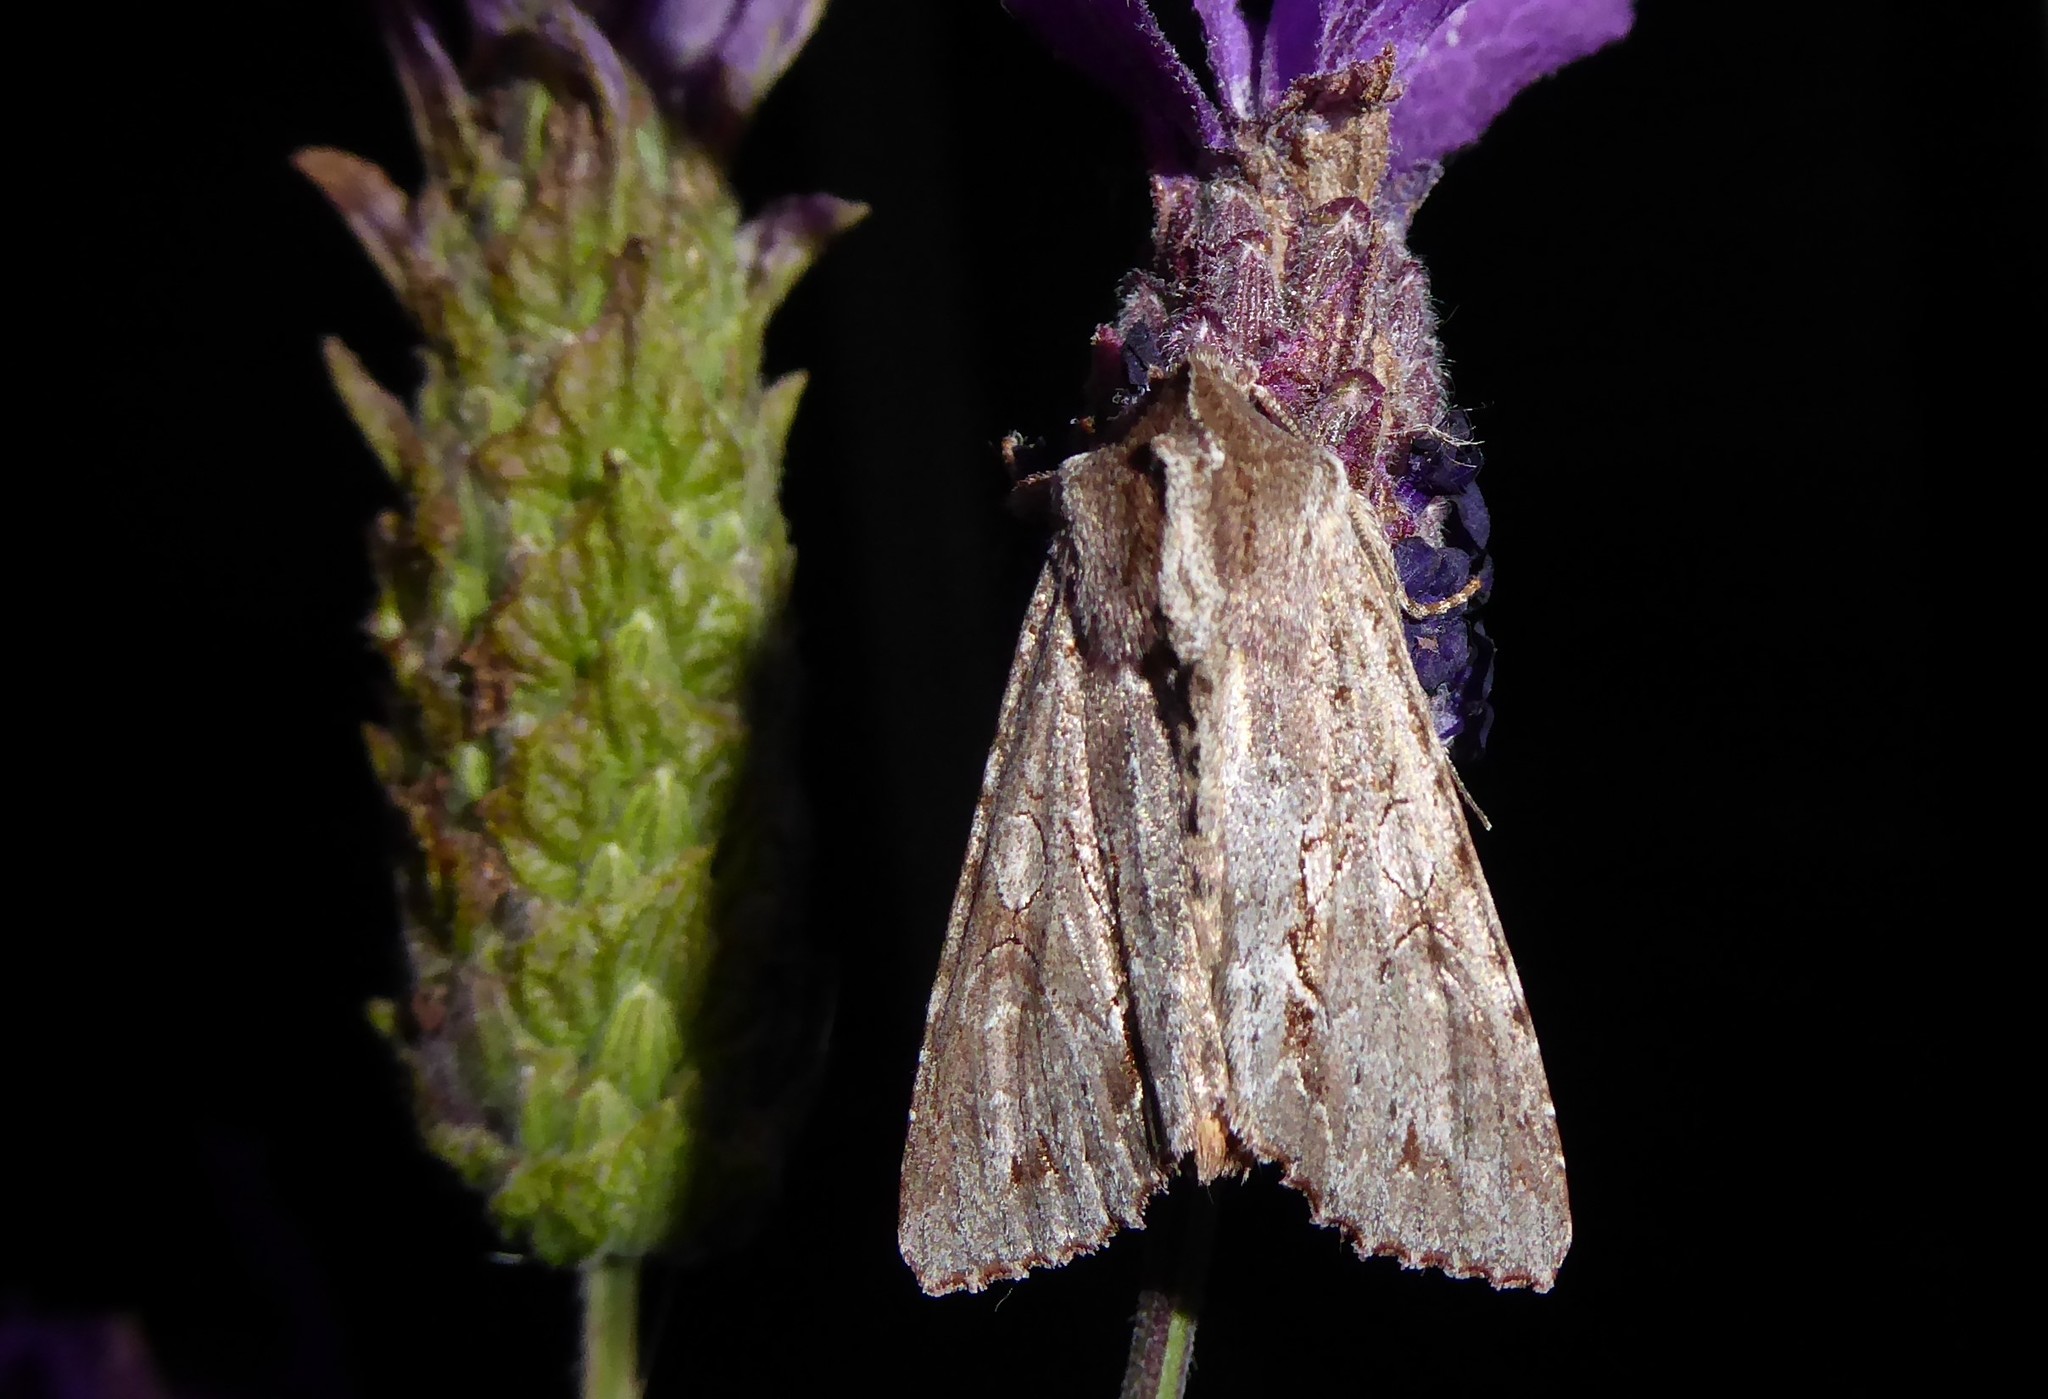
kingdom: Animalia
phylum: Arthropoda
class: Insecta
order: Lepidoptera
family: Noctuidae
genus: Ichneutica
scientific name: Ichneutica
